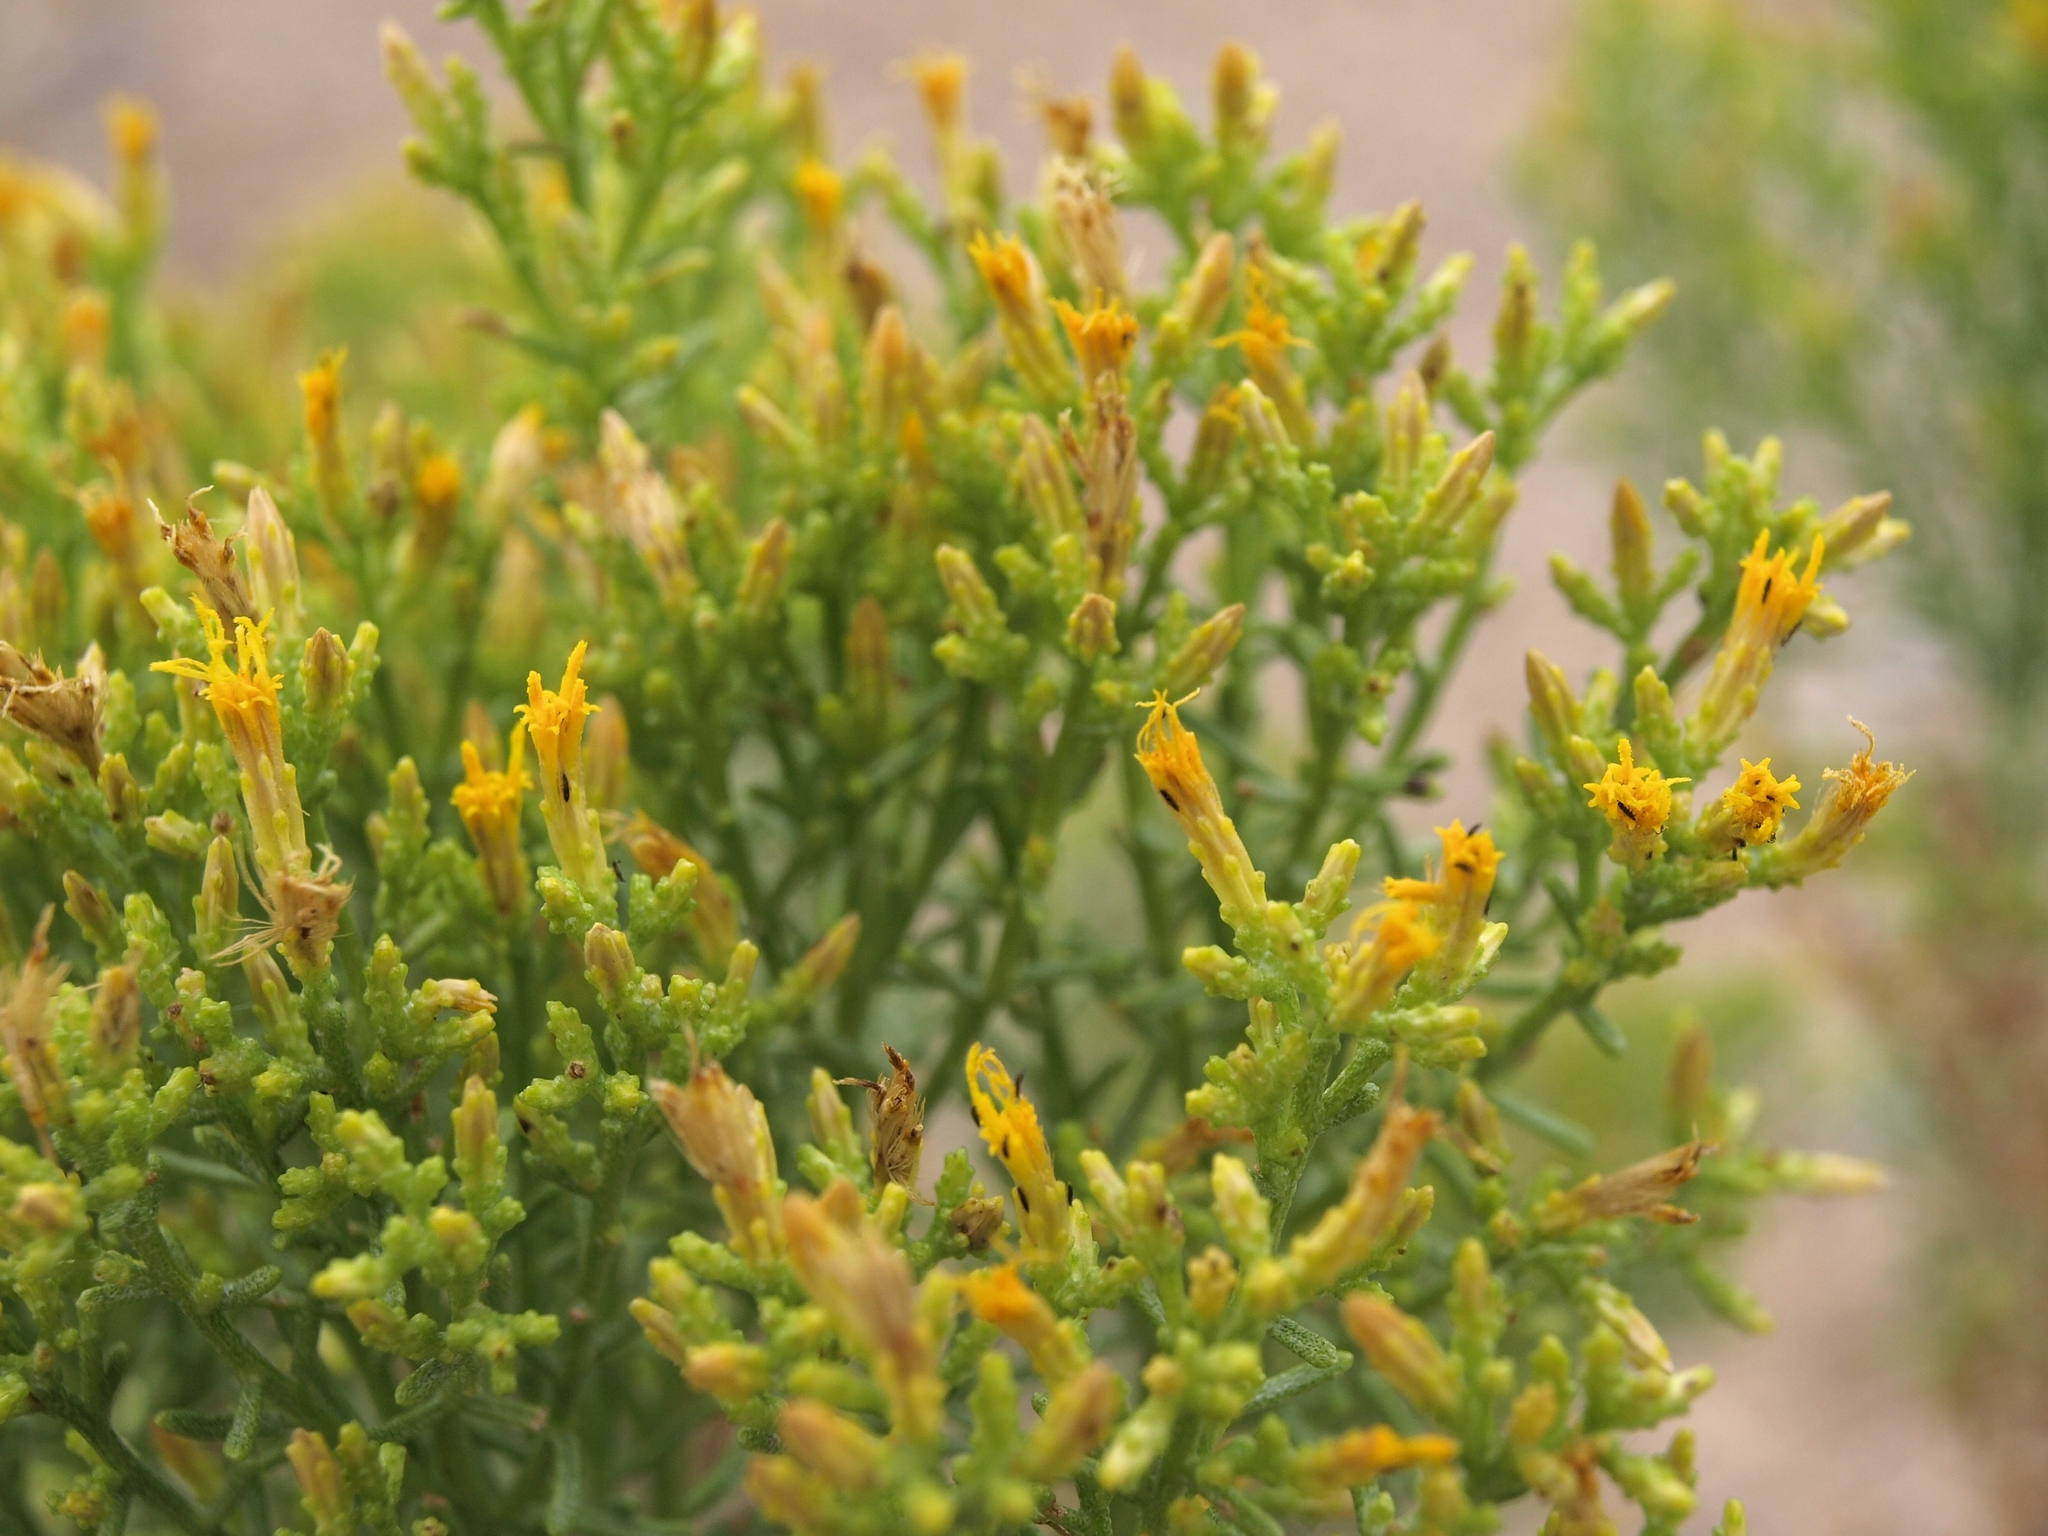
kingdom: Plantae
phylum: Tracheophyta
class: Magnoliopsida
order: Asterales
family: Asteraceae
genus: Ericameria
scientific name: Ericameria teretifolia
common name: Round-leaf rabbitbrush
